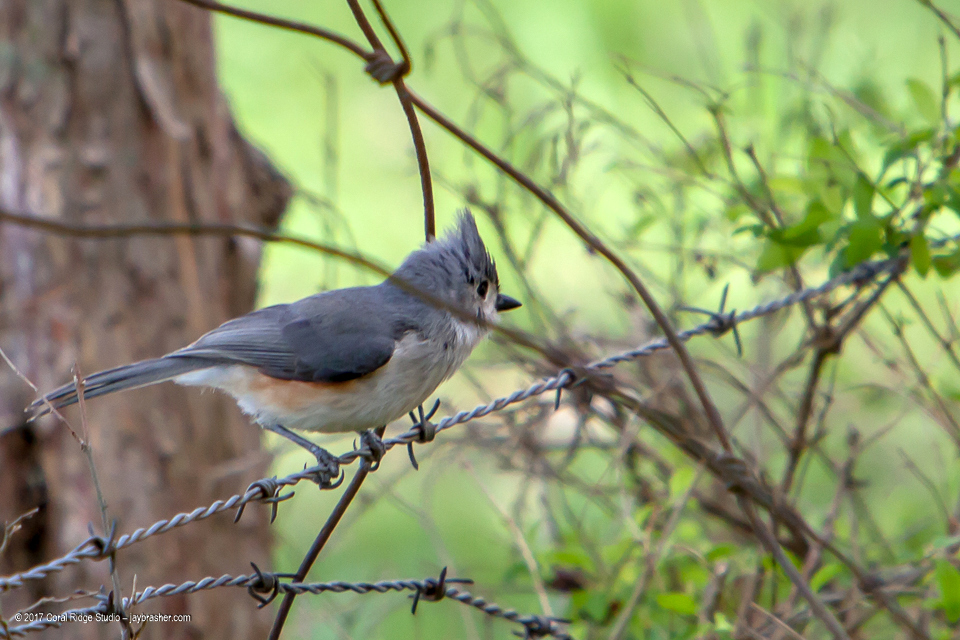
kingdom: Animalia
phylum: Chordata
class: Aves
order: Passeriformes
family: Paridae
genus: Baeolophus
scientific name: Baeolophus bicolor
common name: Tufted titmouse
